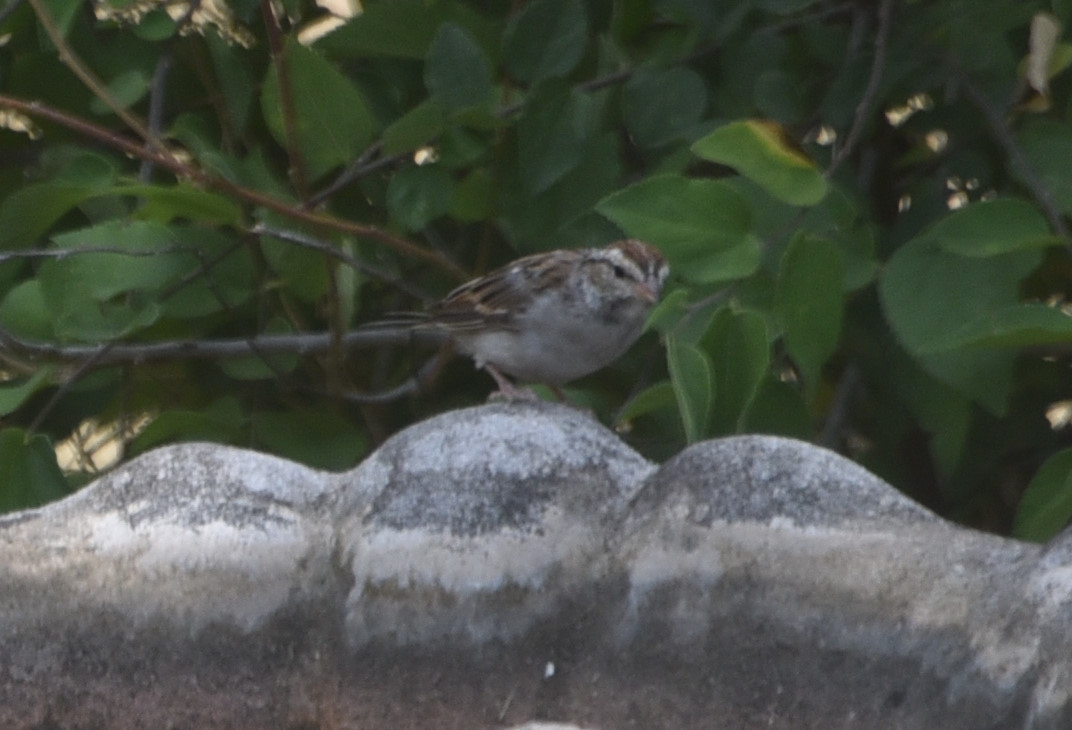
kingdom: Animalia
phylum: Chordata
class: Aves
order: Passeriformes
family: Passerellidae
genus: Spizella
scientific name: Spizella passerina
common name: Chipping sparrow
